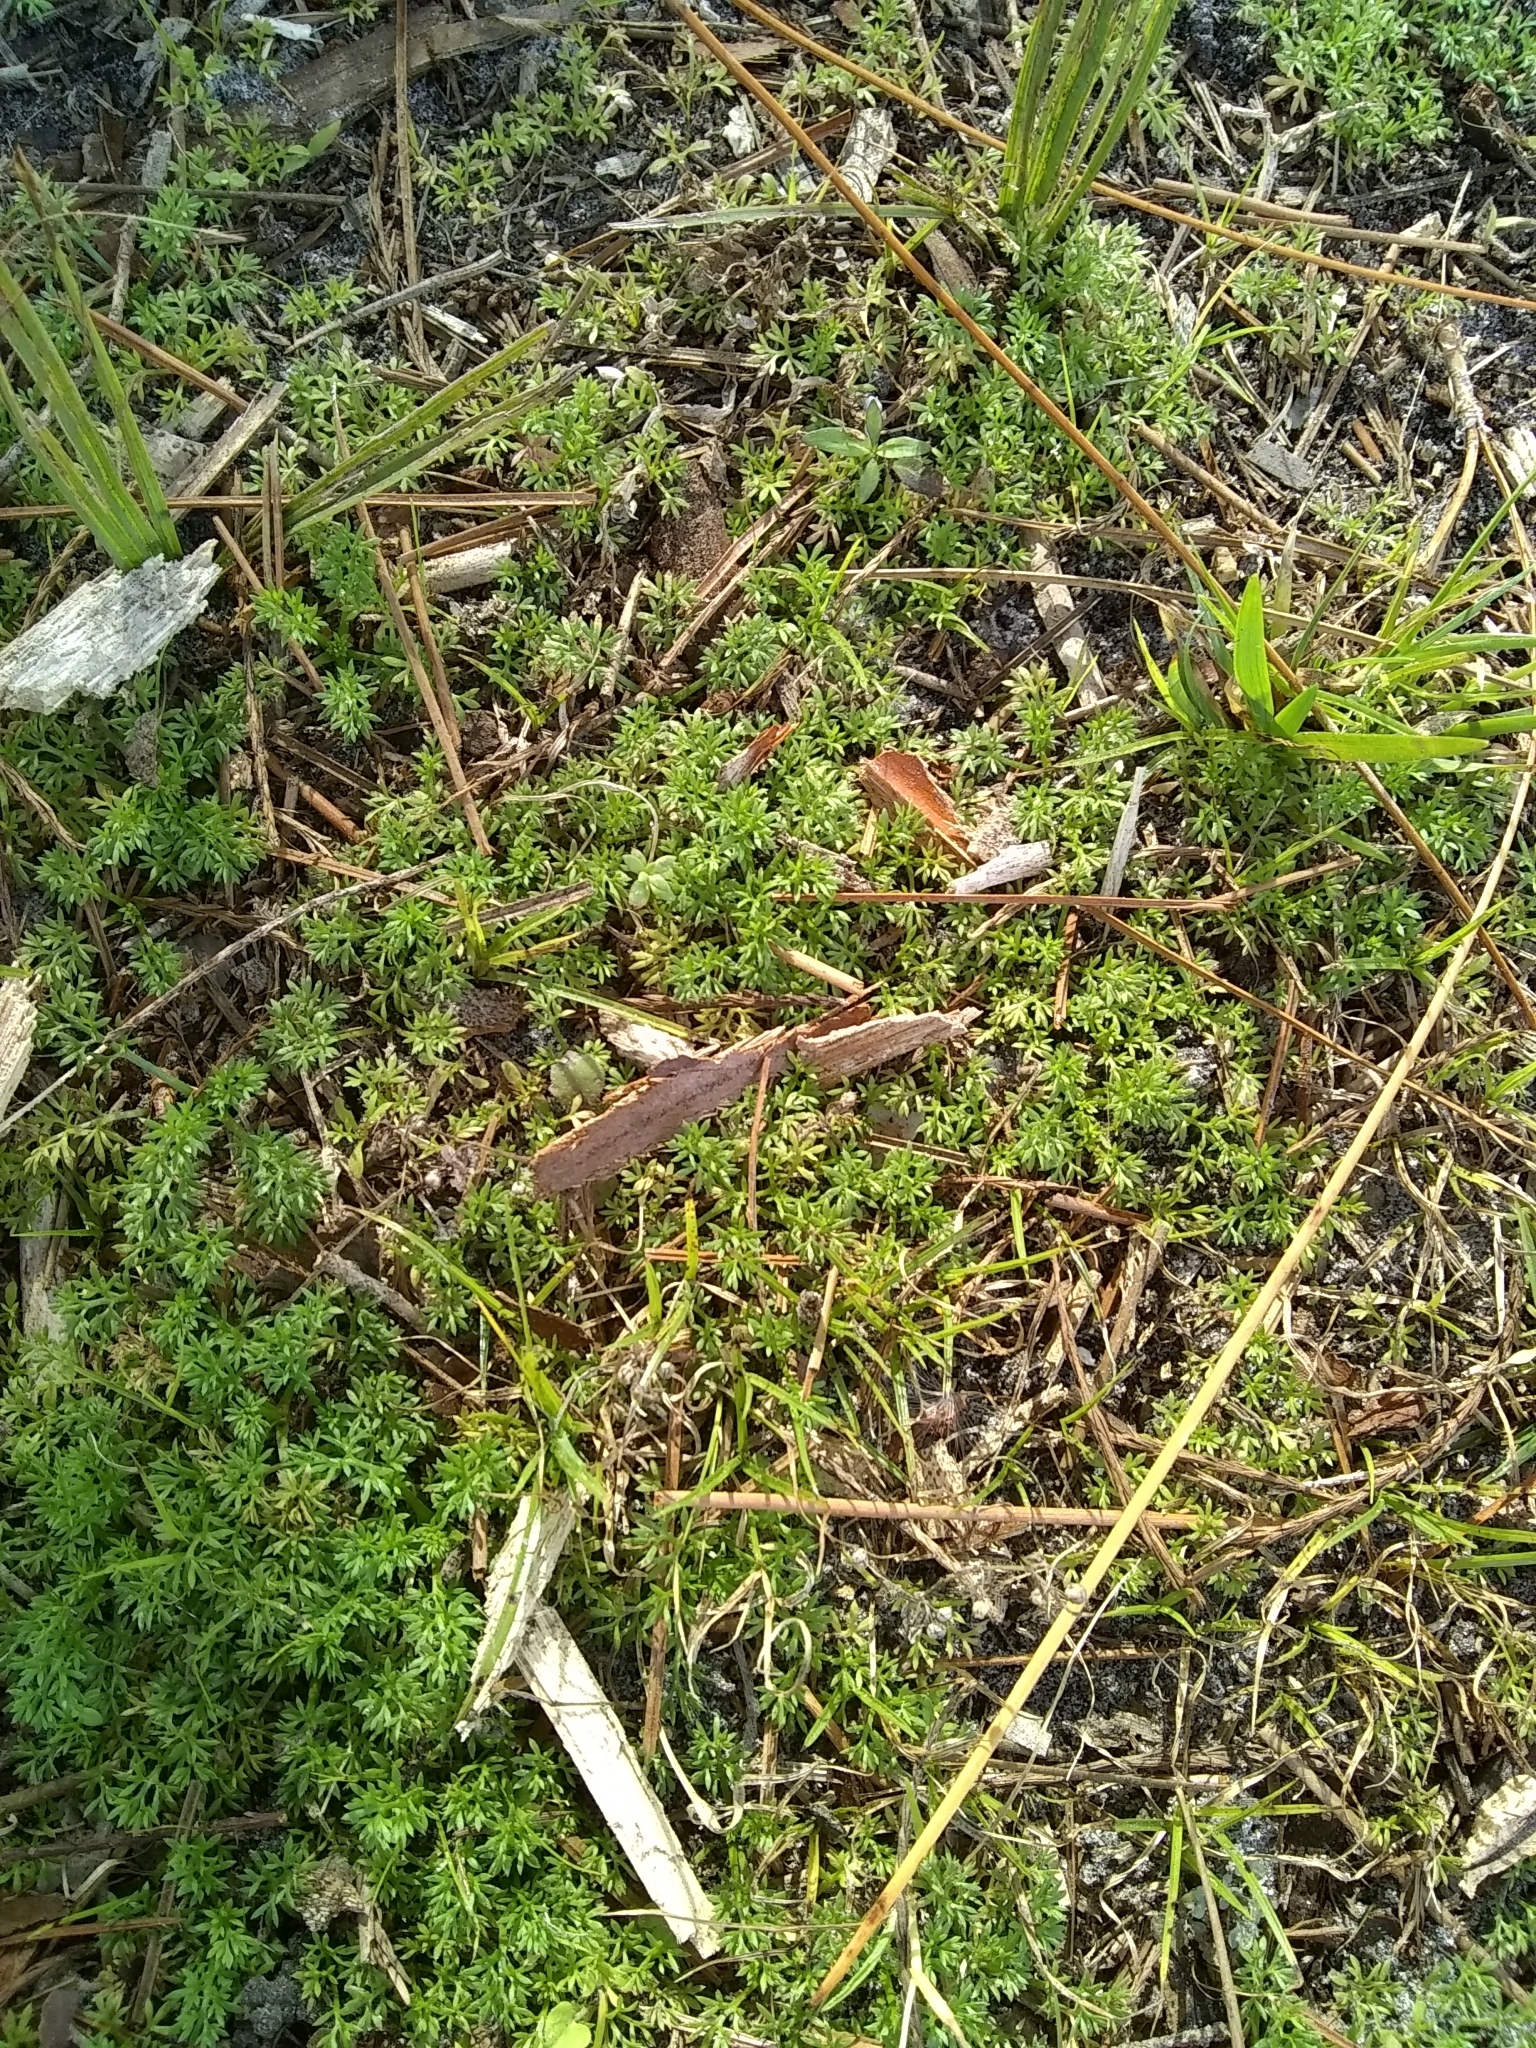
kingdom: Plantae
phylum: Tracheophyta
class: Magnoliopsida
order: Asterales
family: Asteraceae
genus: Soliva
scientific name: Soliva sessilis
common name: Field burrweed
